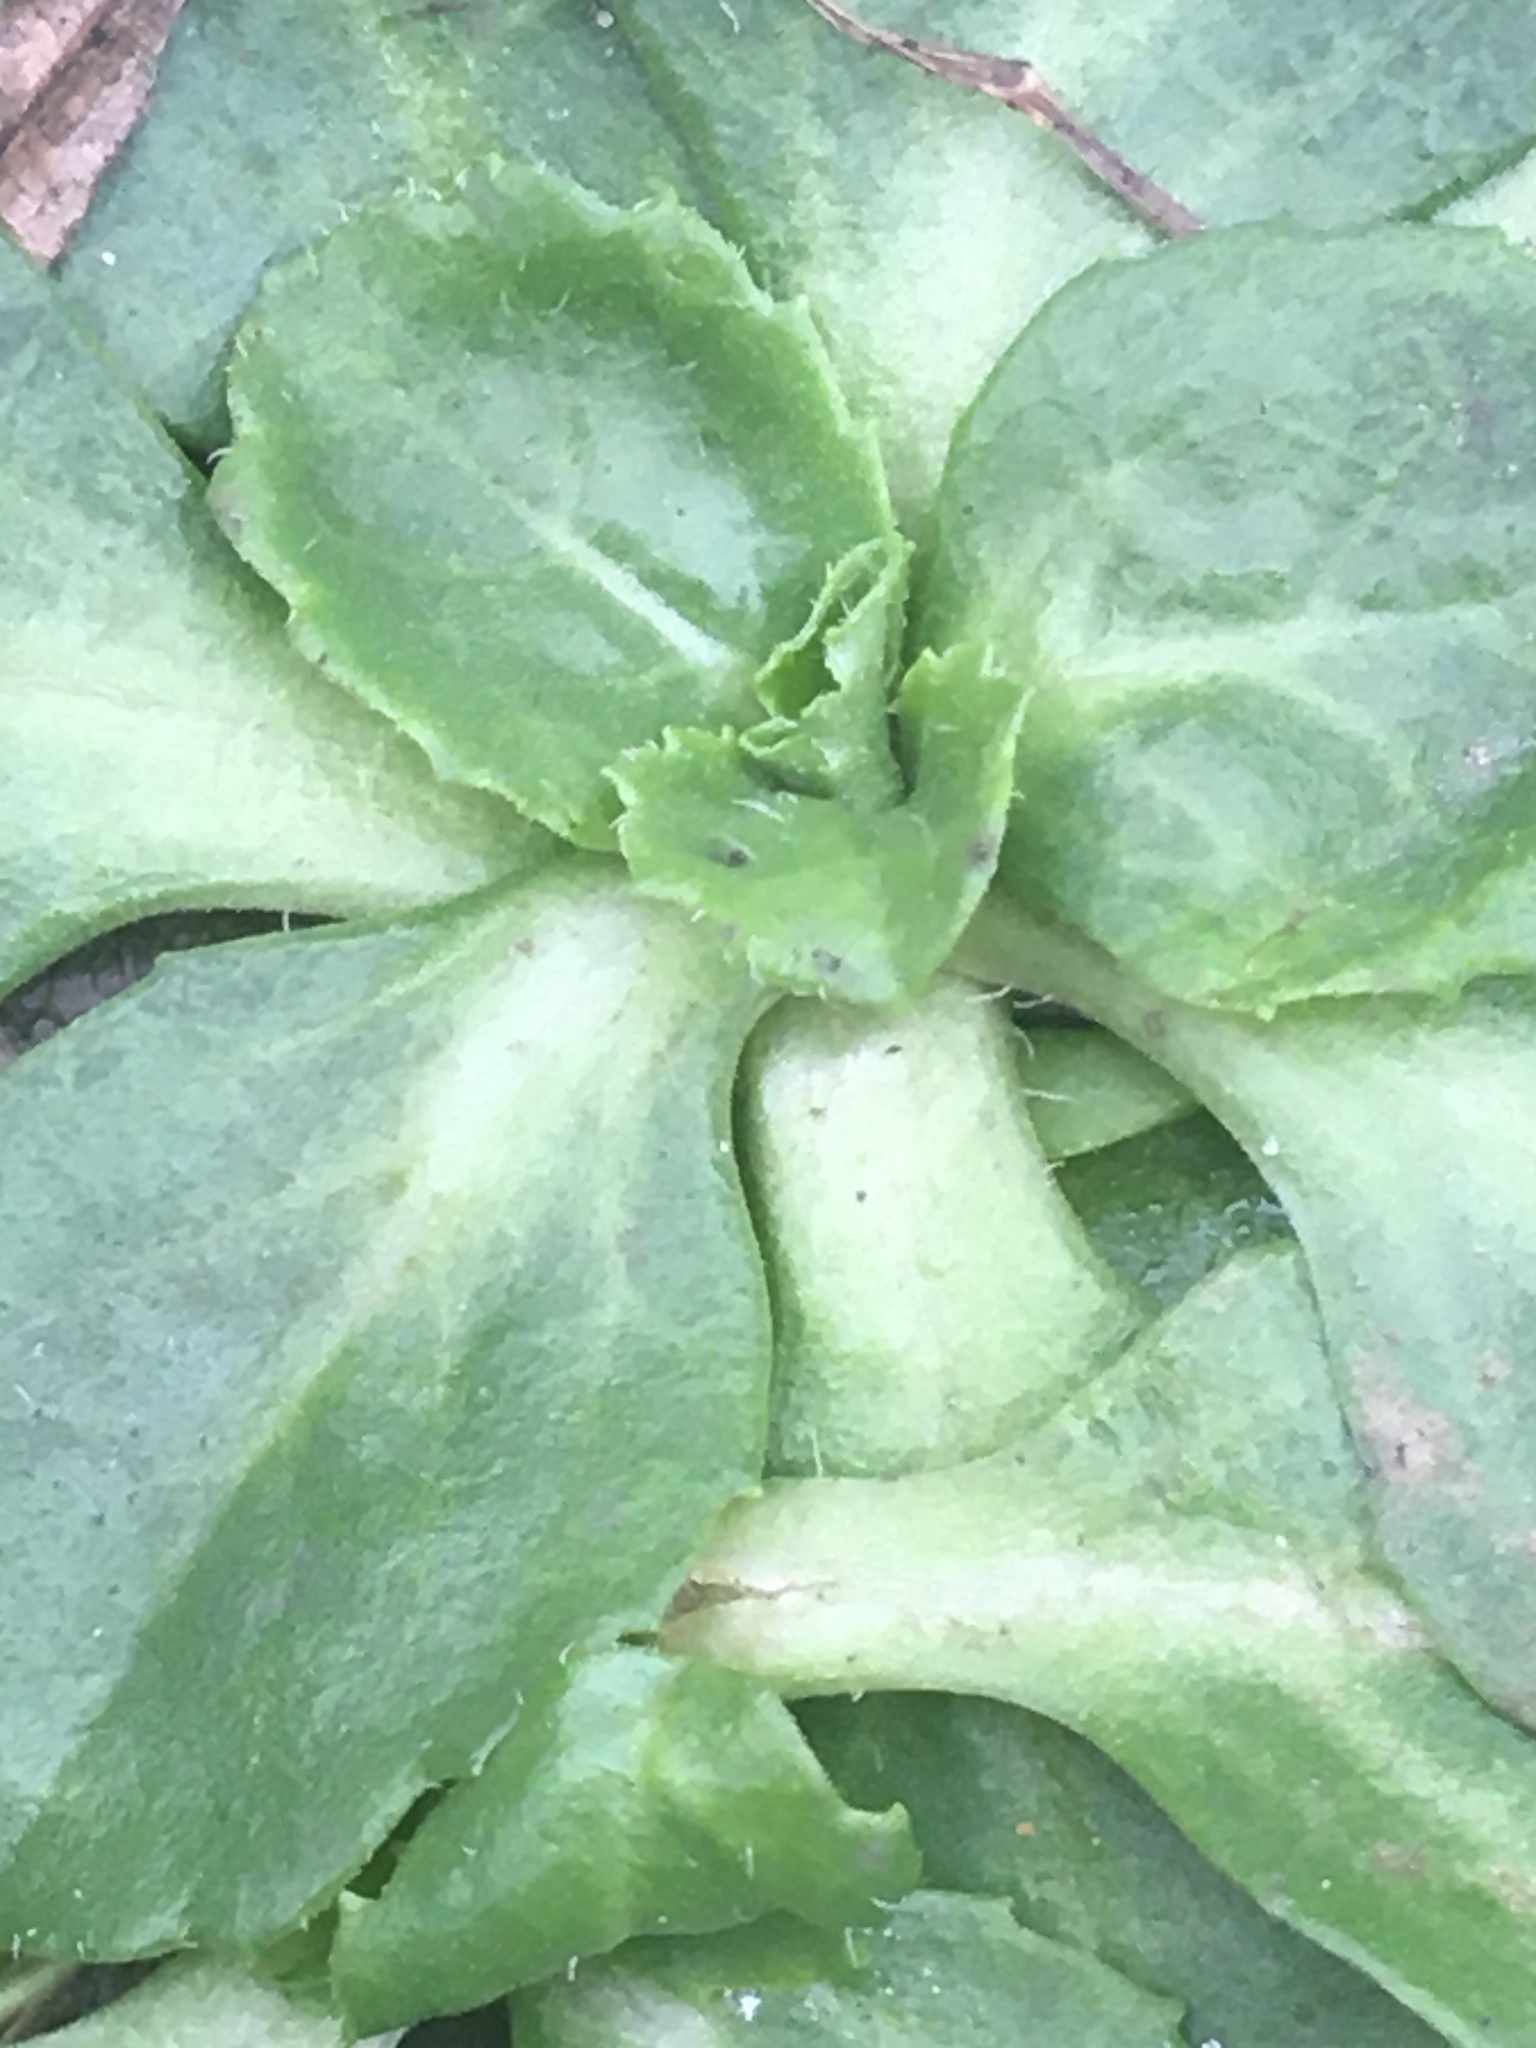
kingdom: Plantae
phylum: Tracheophyta
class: Magnoliopsida
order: Asterales
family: Asteraceae
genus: Bellis
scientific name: Bellis perennis
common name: Lawndaisy
